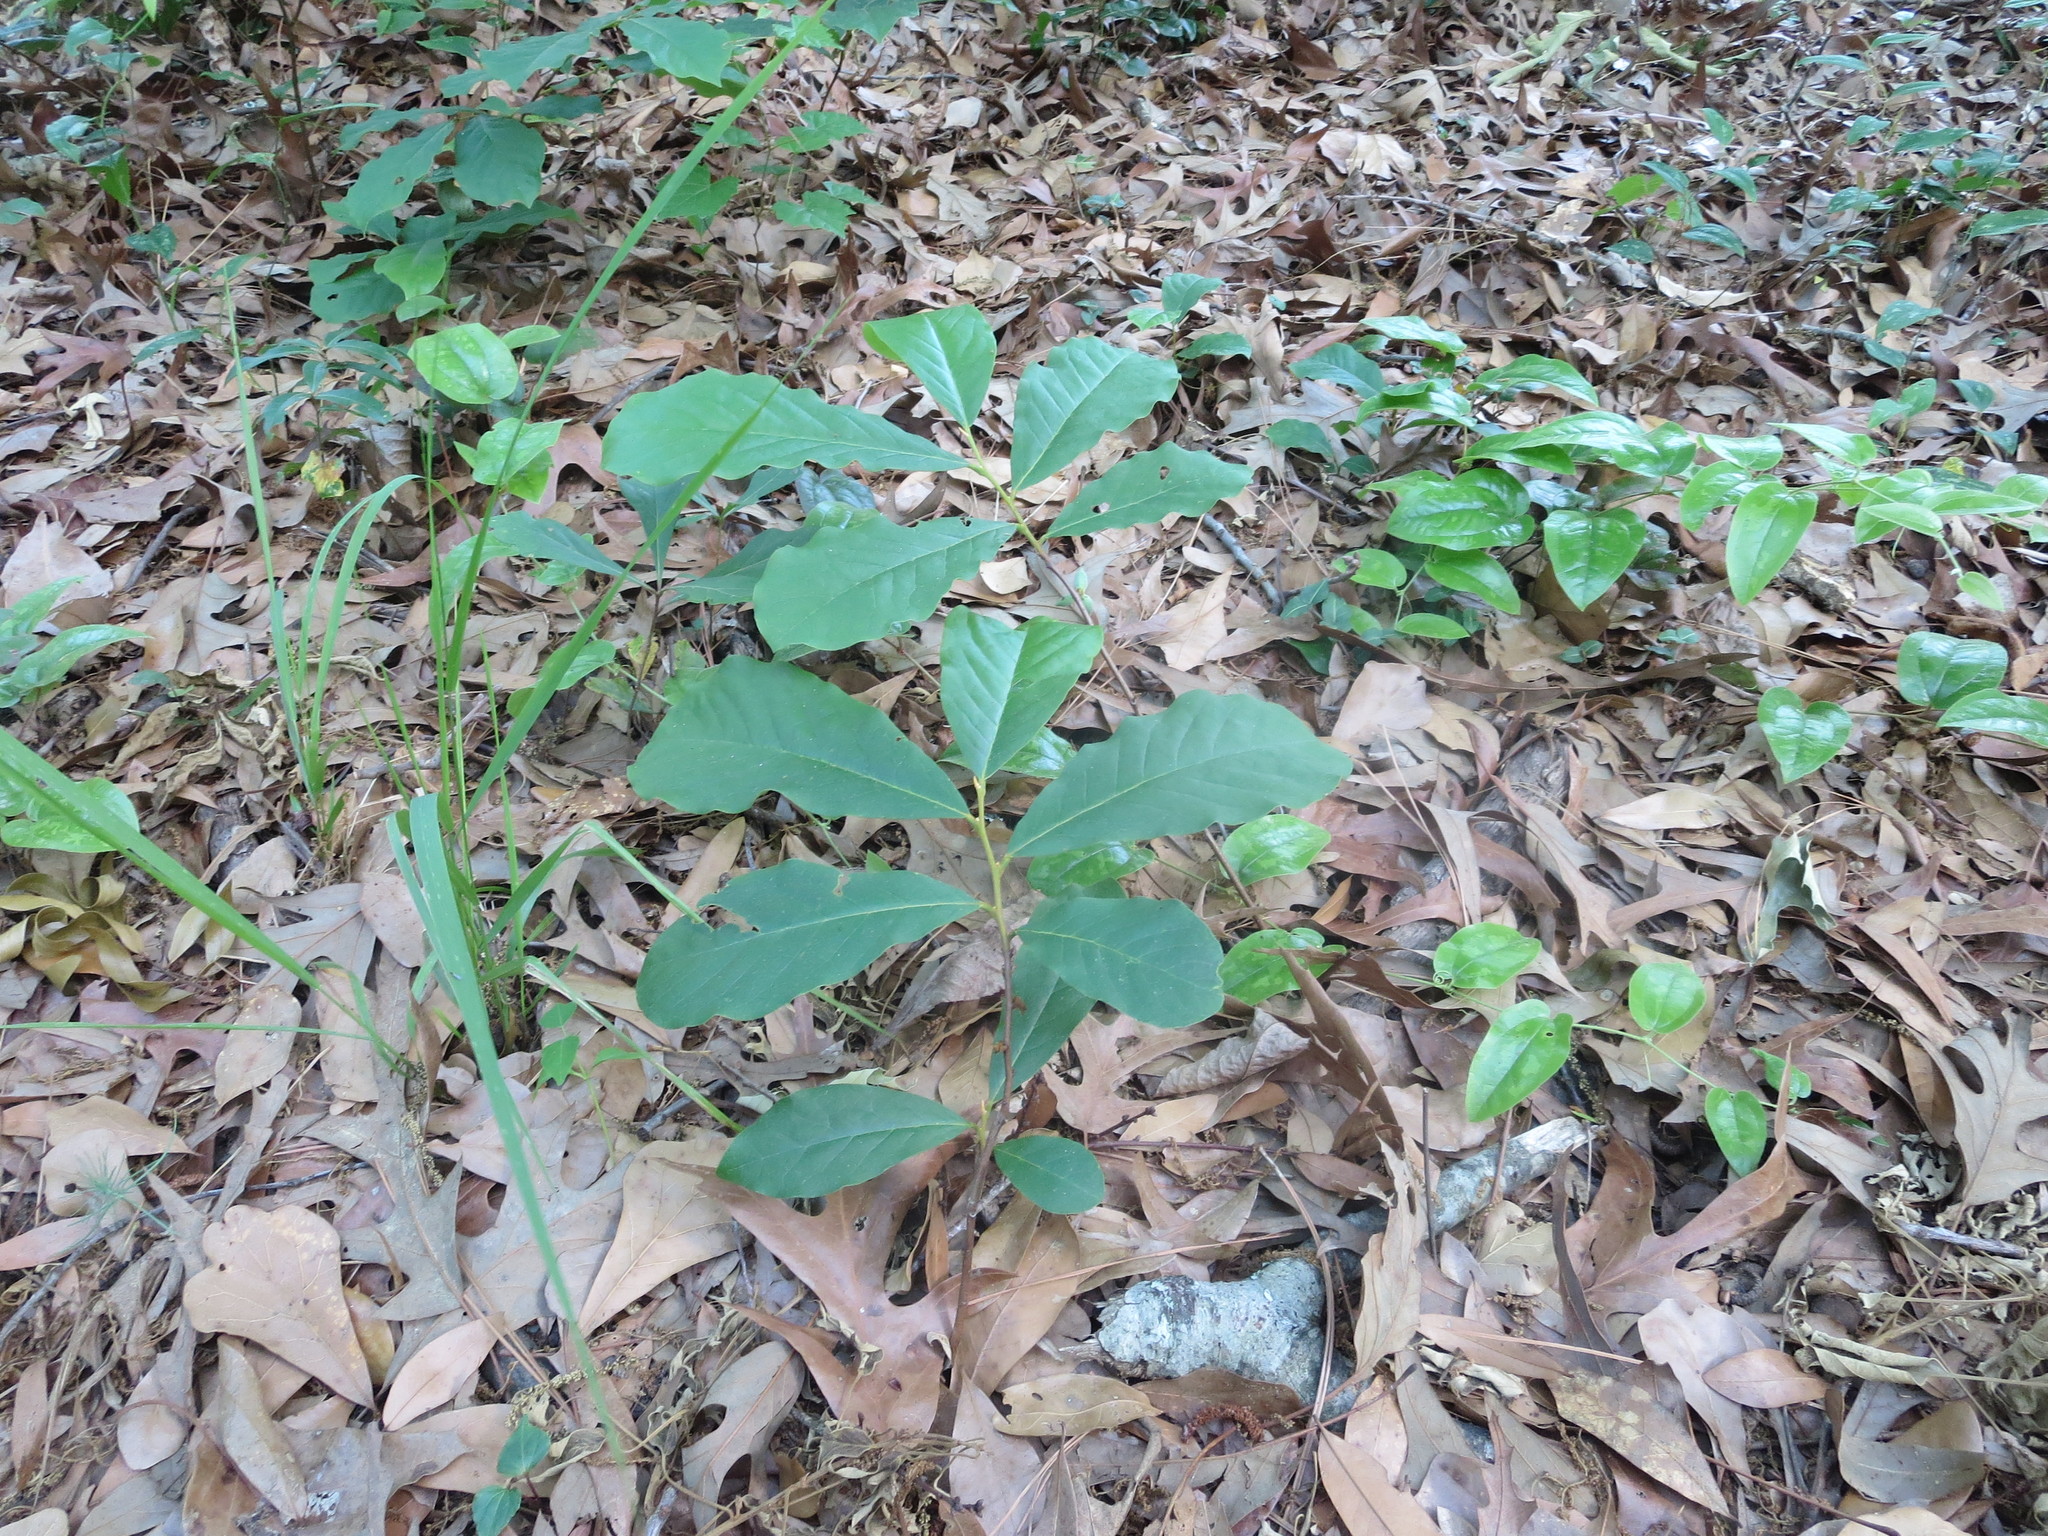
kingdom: Plantae
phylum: Tracheophyta
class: Magnoliopsida
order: Magnoliales
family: Annonaceae
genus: Asimina
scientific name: Asimina parviflora
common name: Dwarf pawpaw
